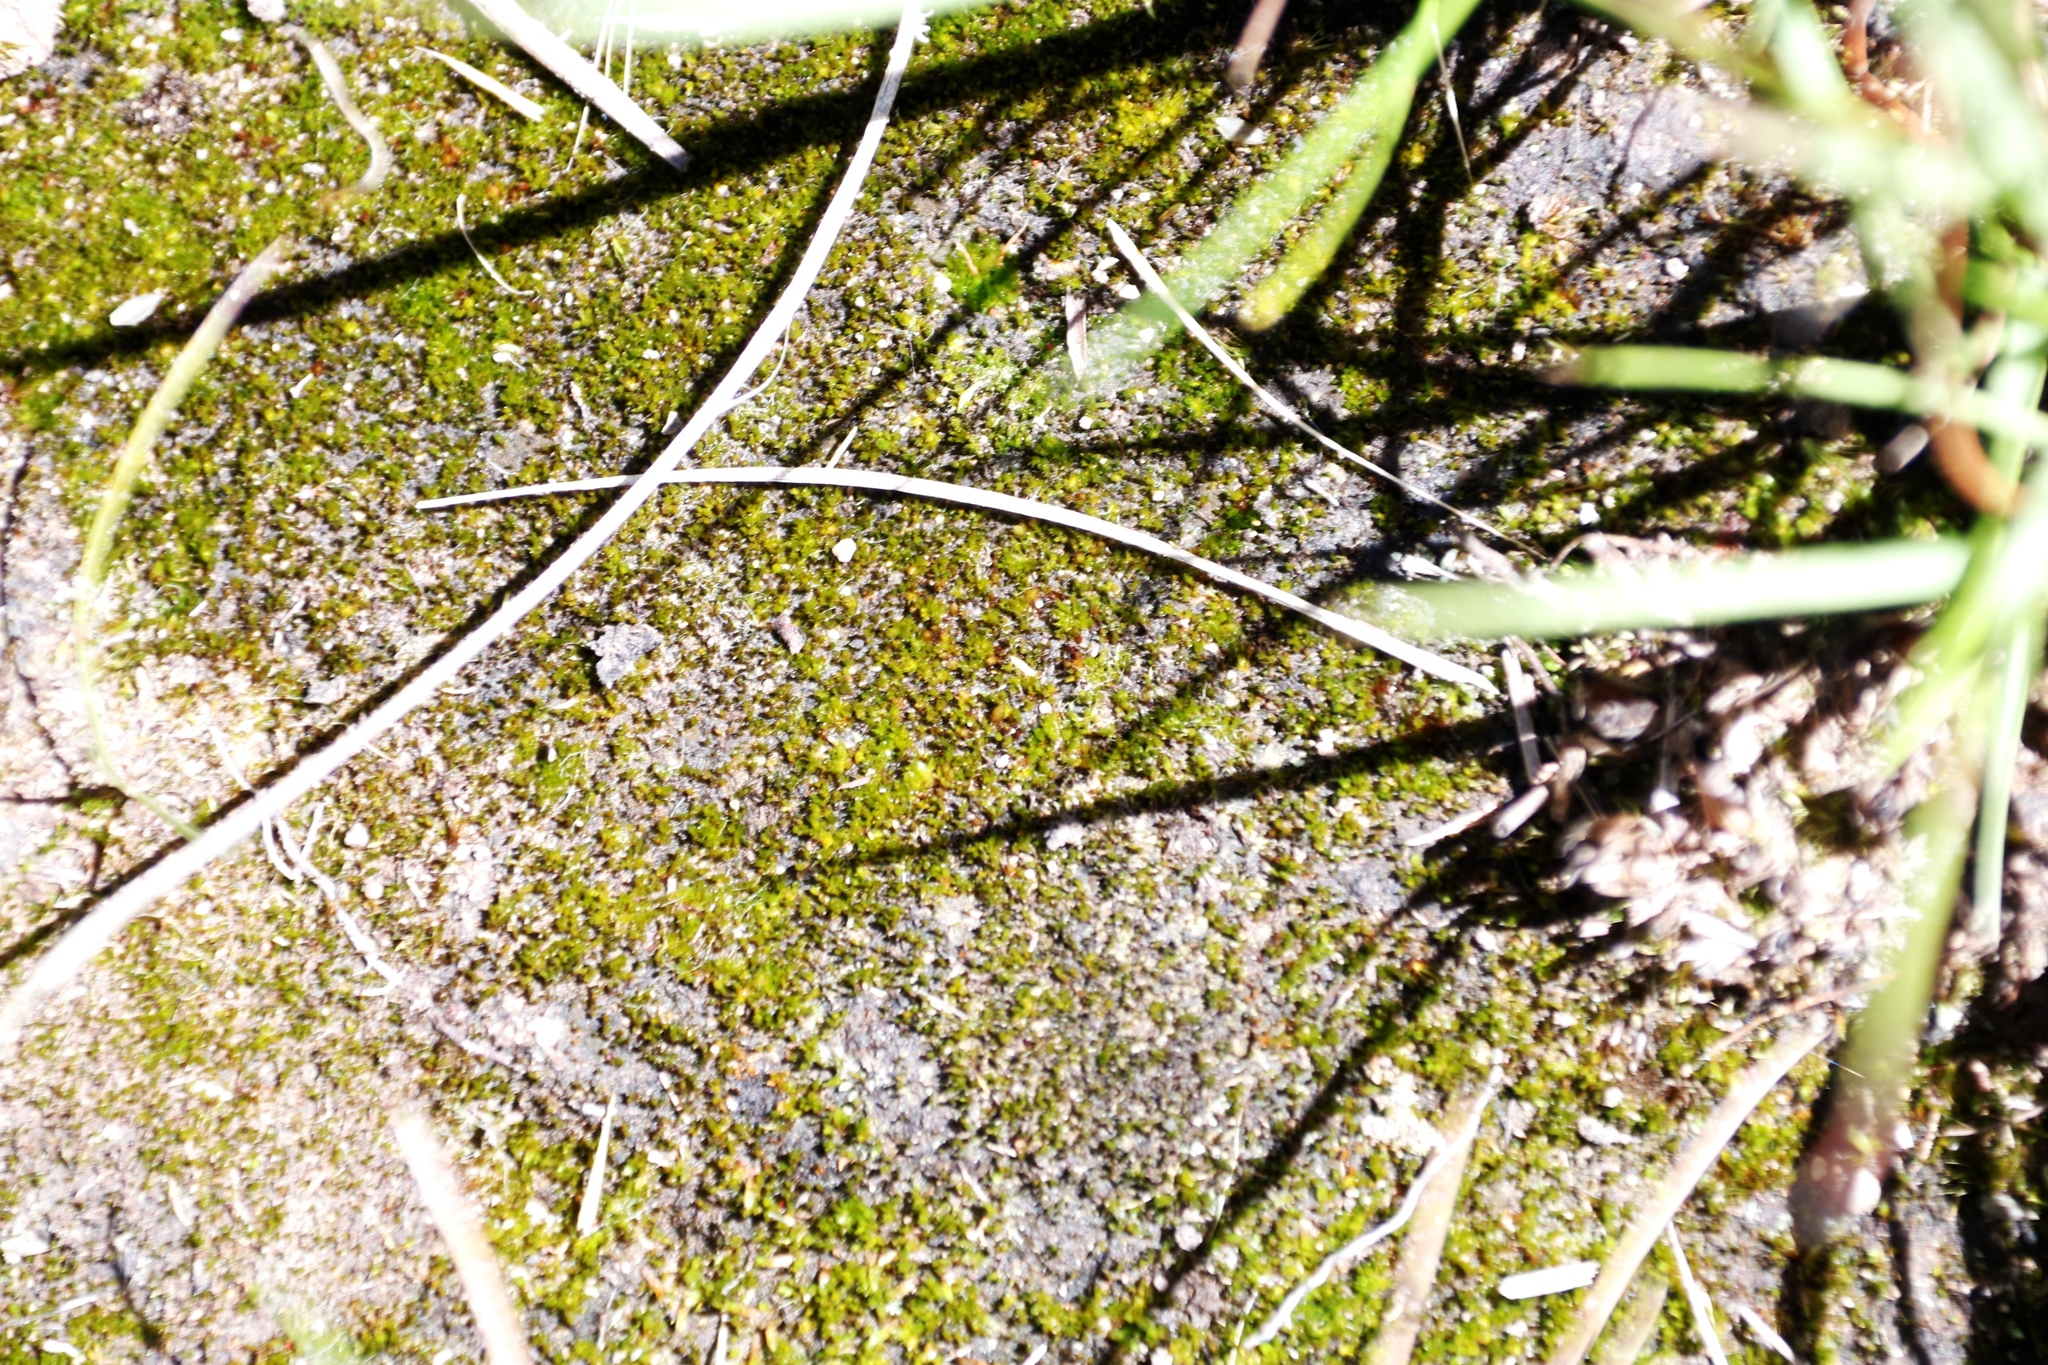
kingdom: Plantae
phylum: Bryophyta
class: Bryopsida
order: Dicranales
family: Leucobryaceae
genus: Campylopus
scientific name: Campylopus pilifer
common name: Campylopus moss
